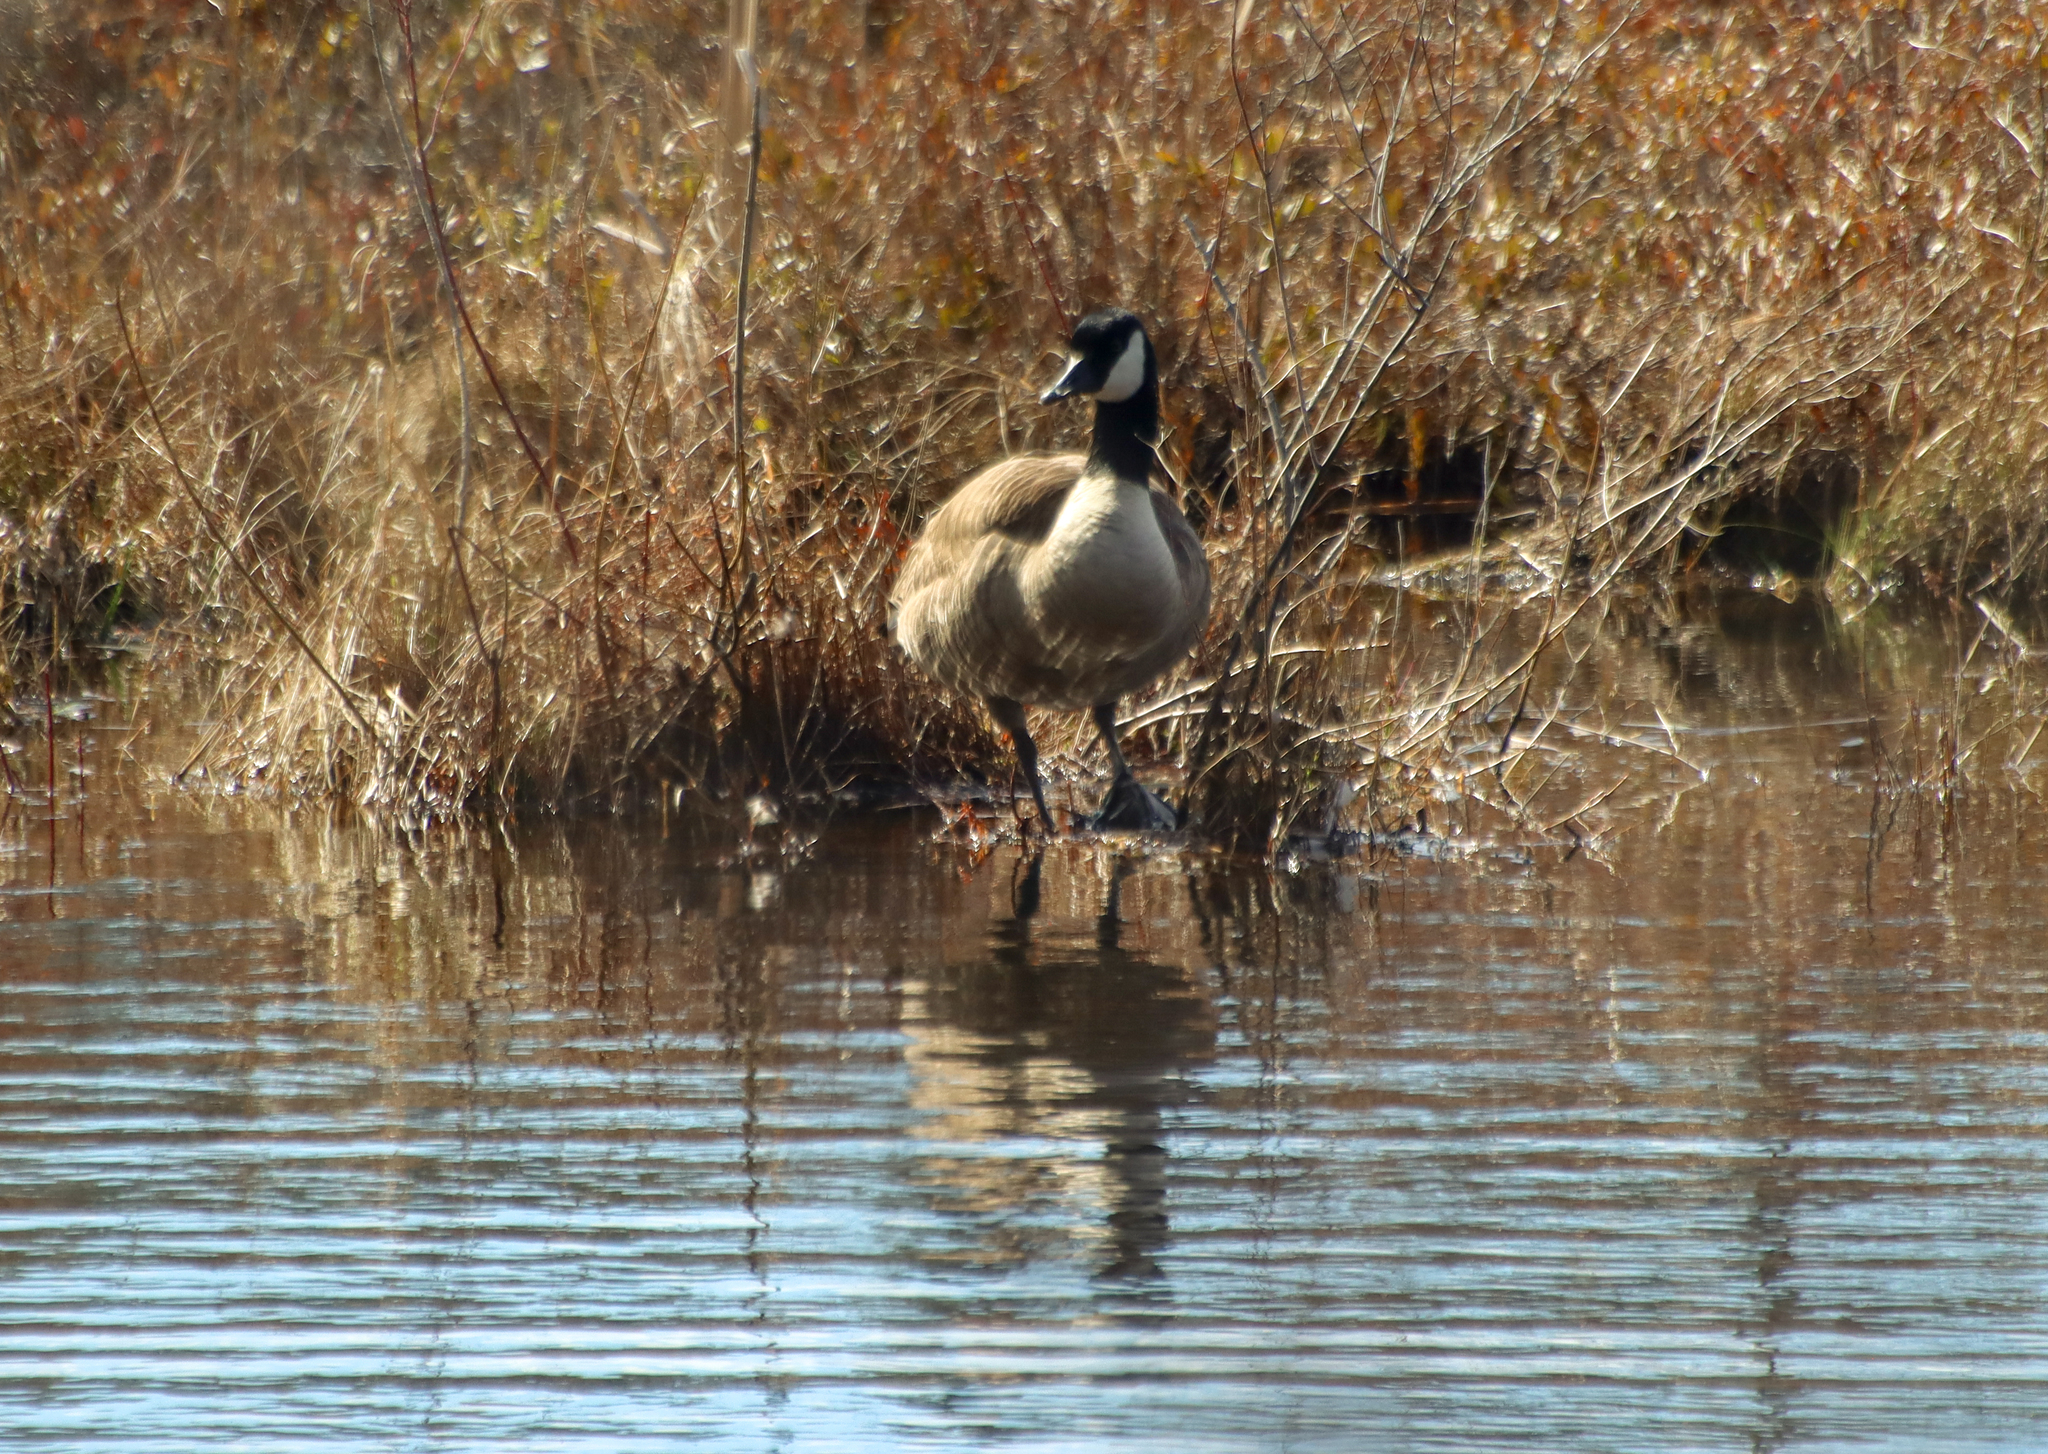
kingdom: Animalia
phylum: Chordata
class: Aves
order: Anseriformes
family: Anatidae
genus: Branta
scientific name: Branta canadensis
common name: Canada goose
